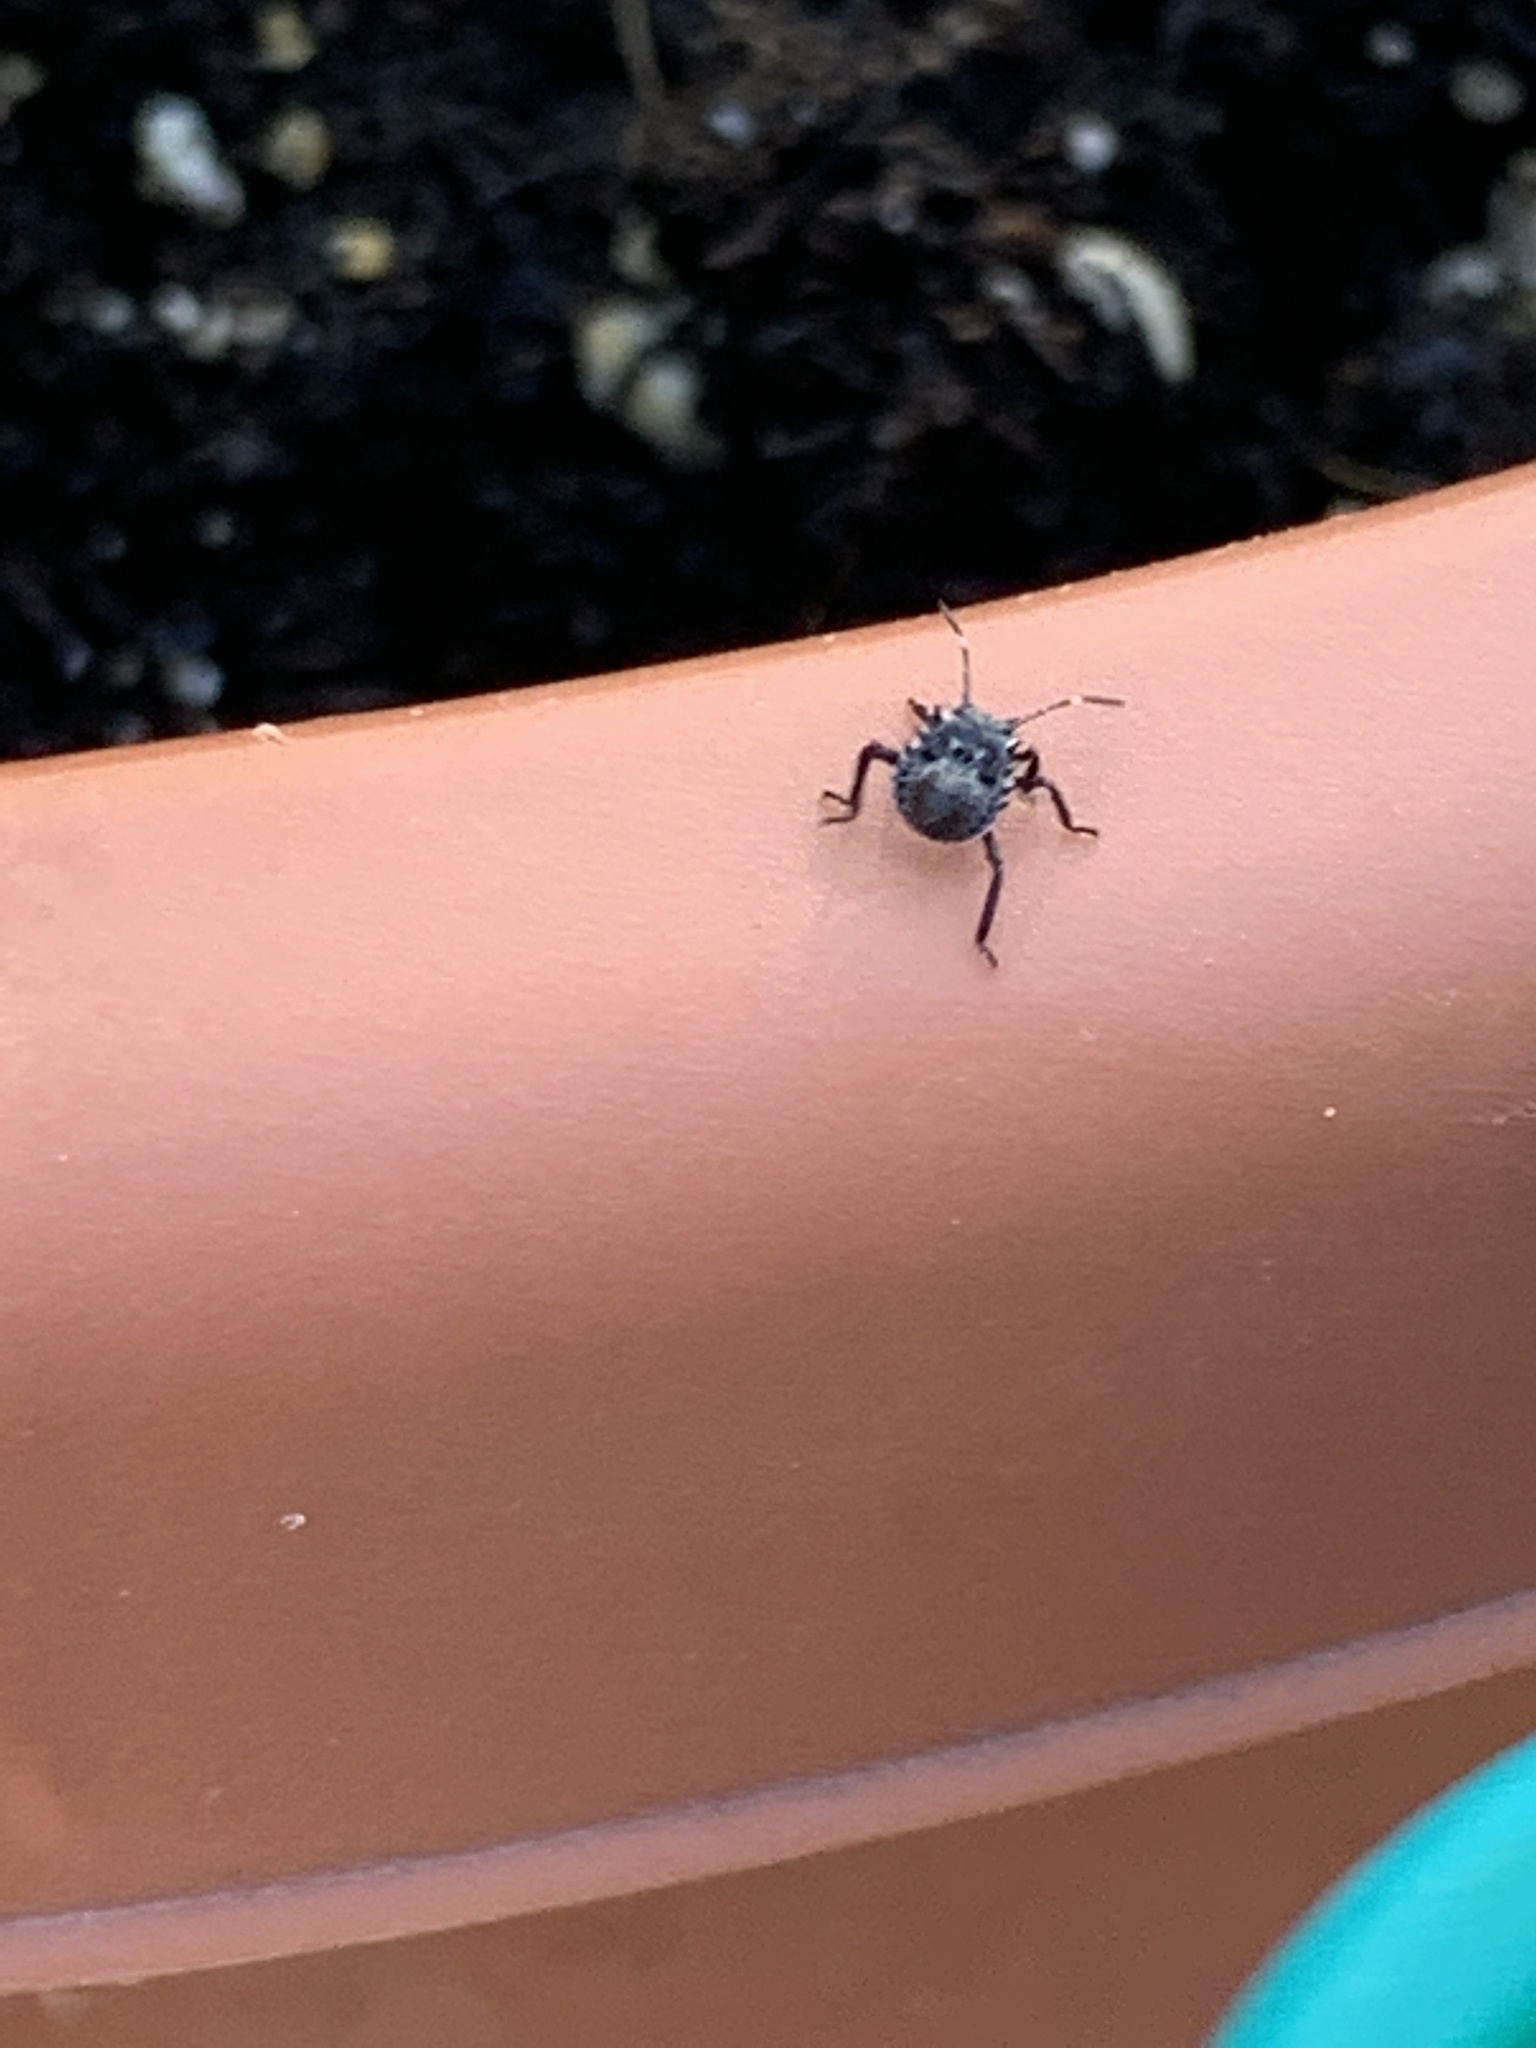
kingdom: Animalia
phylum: Arthropoda
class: Insecta
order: Hemiptera
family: Pentatomidae
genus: Halyomorpha
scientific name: Halyomorpha halys
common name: Brown marmorated stink bug
